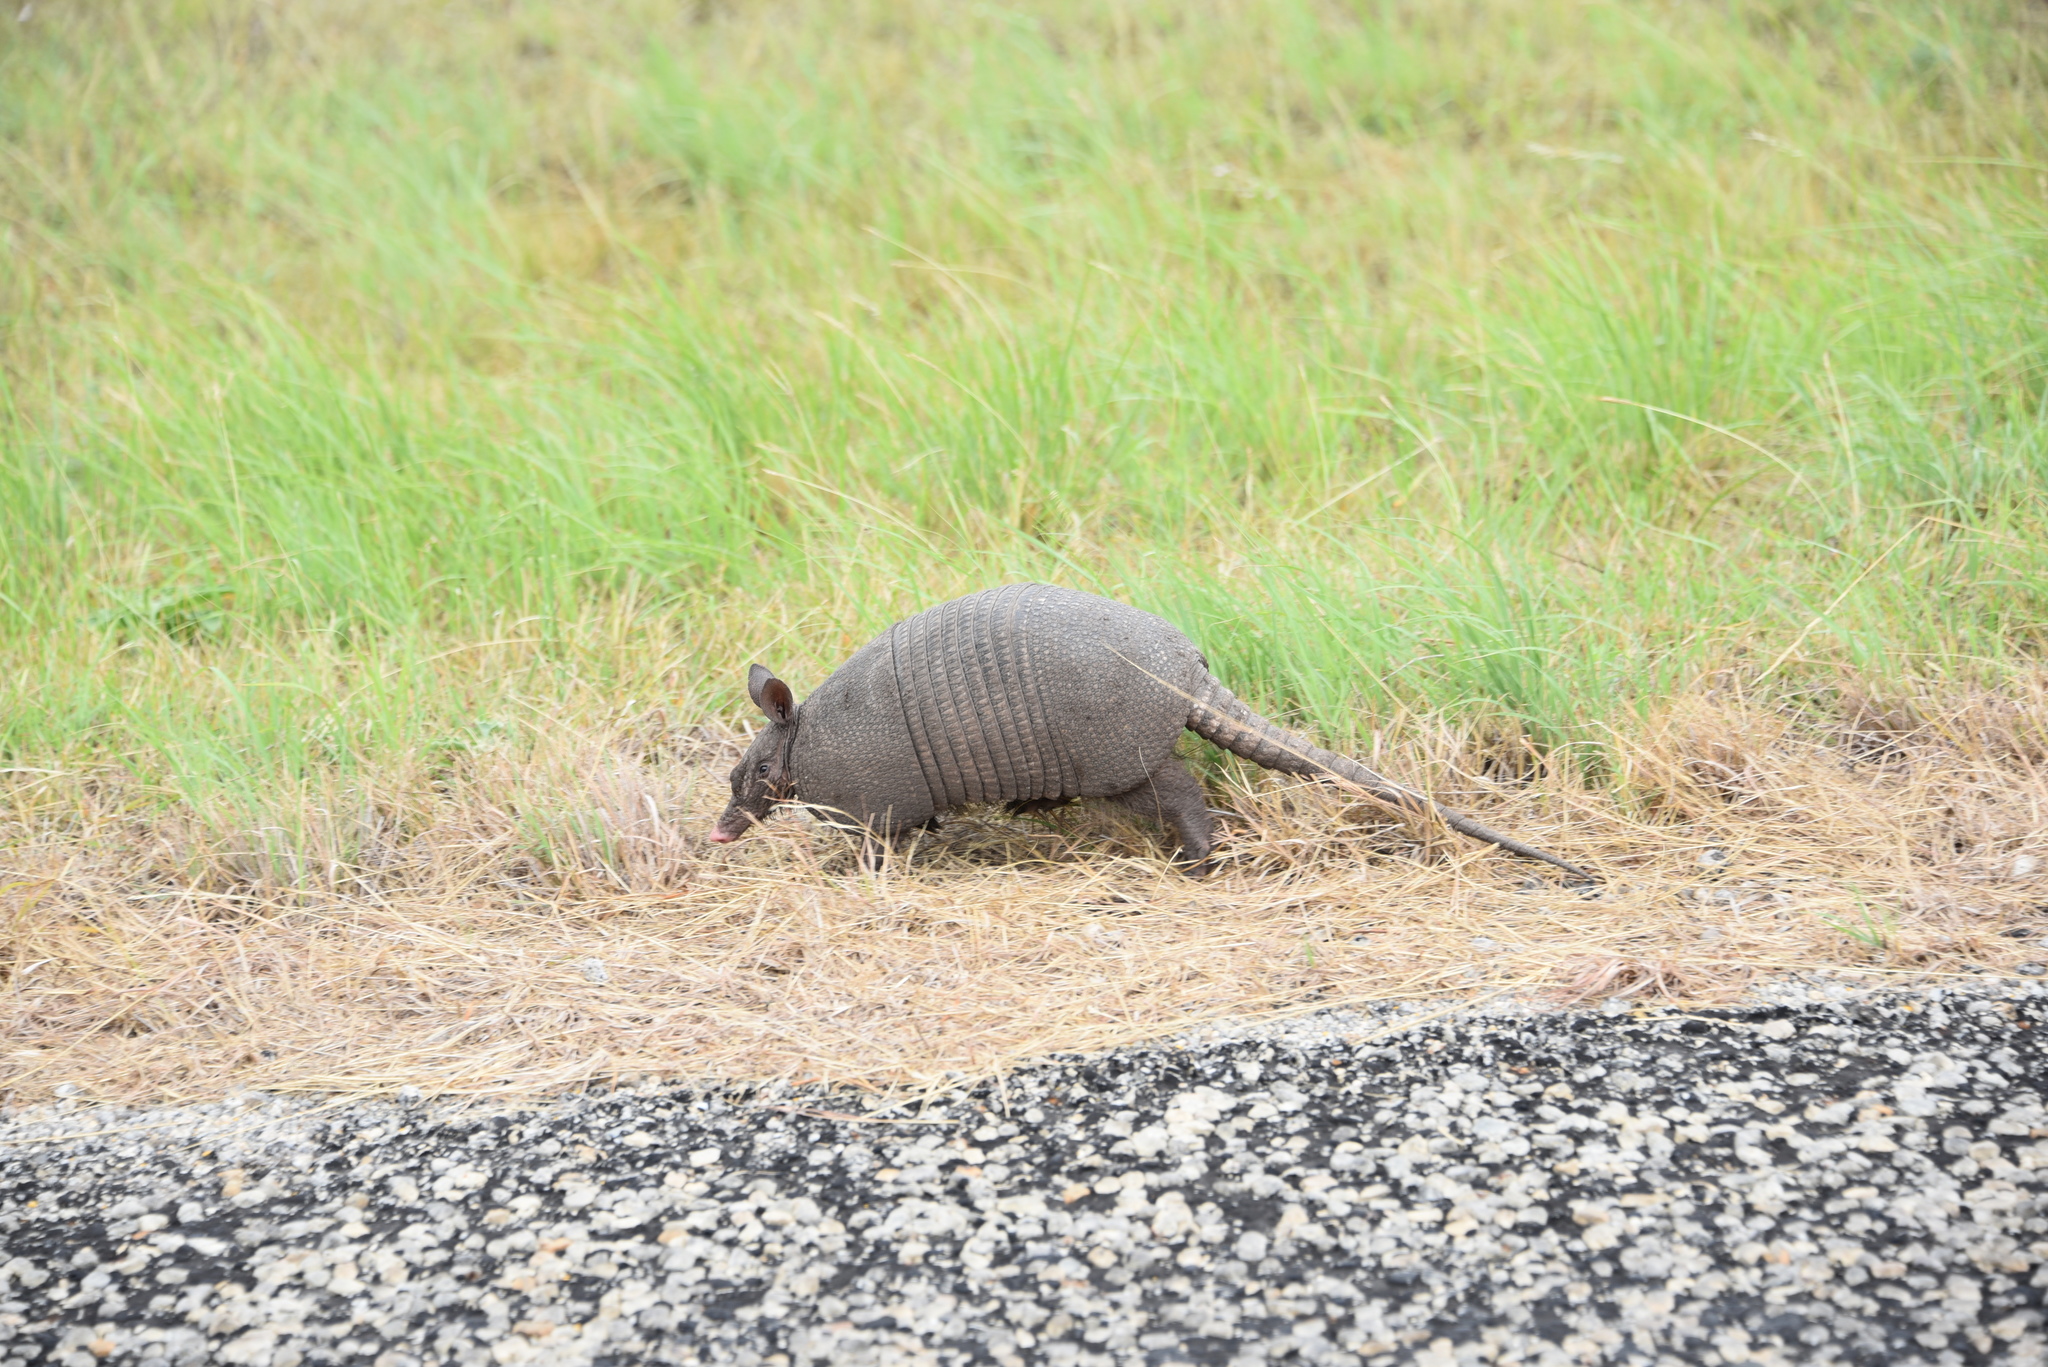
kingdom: Animalia
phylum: Chordata
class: Mammalia
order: Cingulata
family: Dasypodidae
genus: Dasypus
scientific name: Dasypus novemcinctus
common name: Nine-banded armadillo
